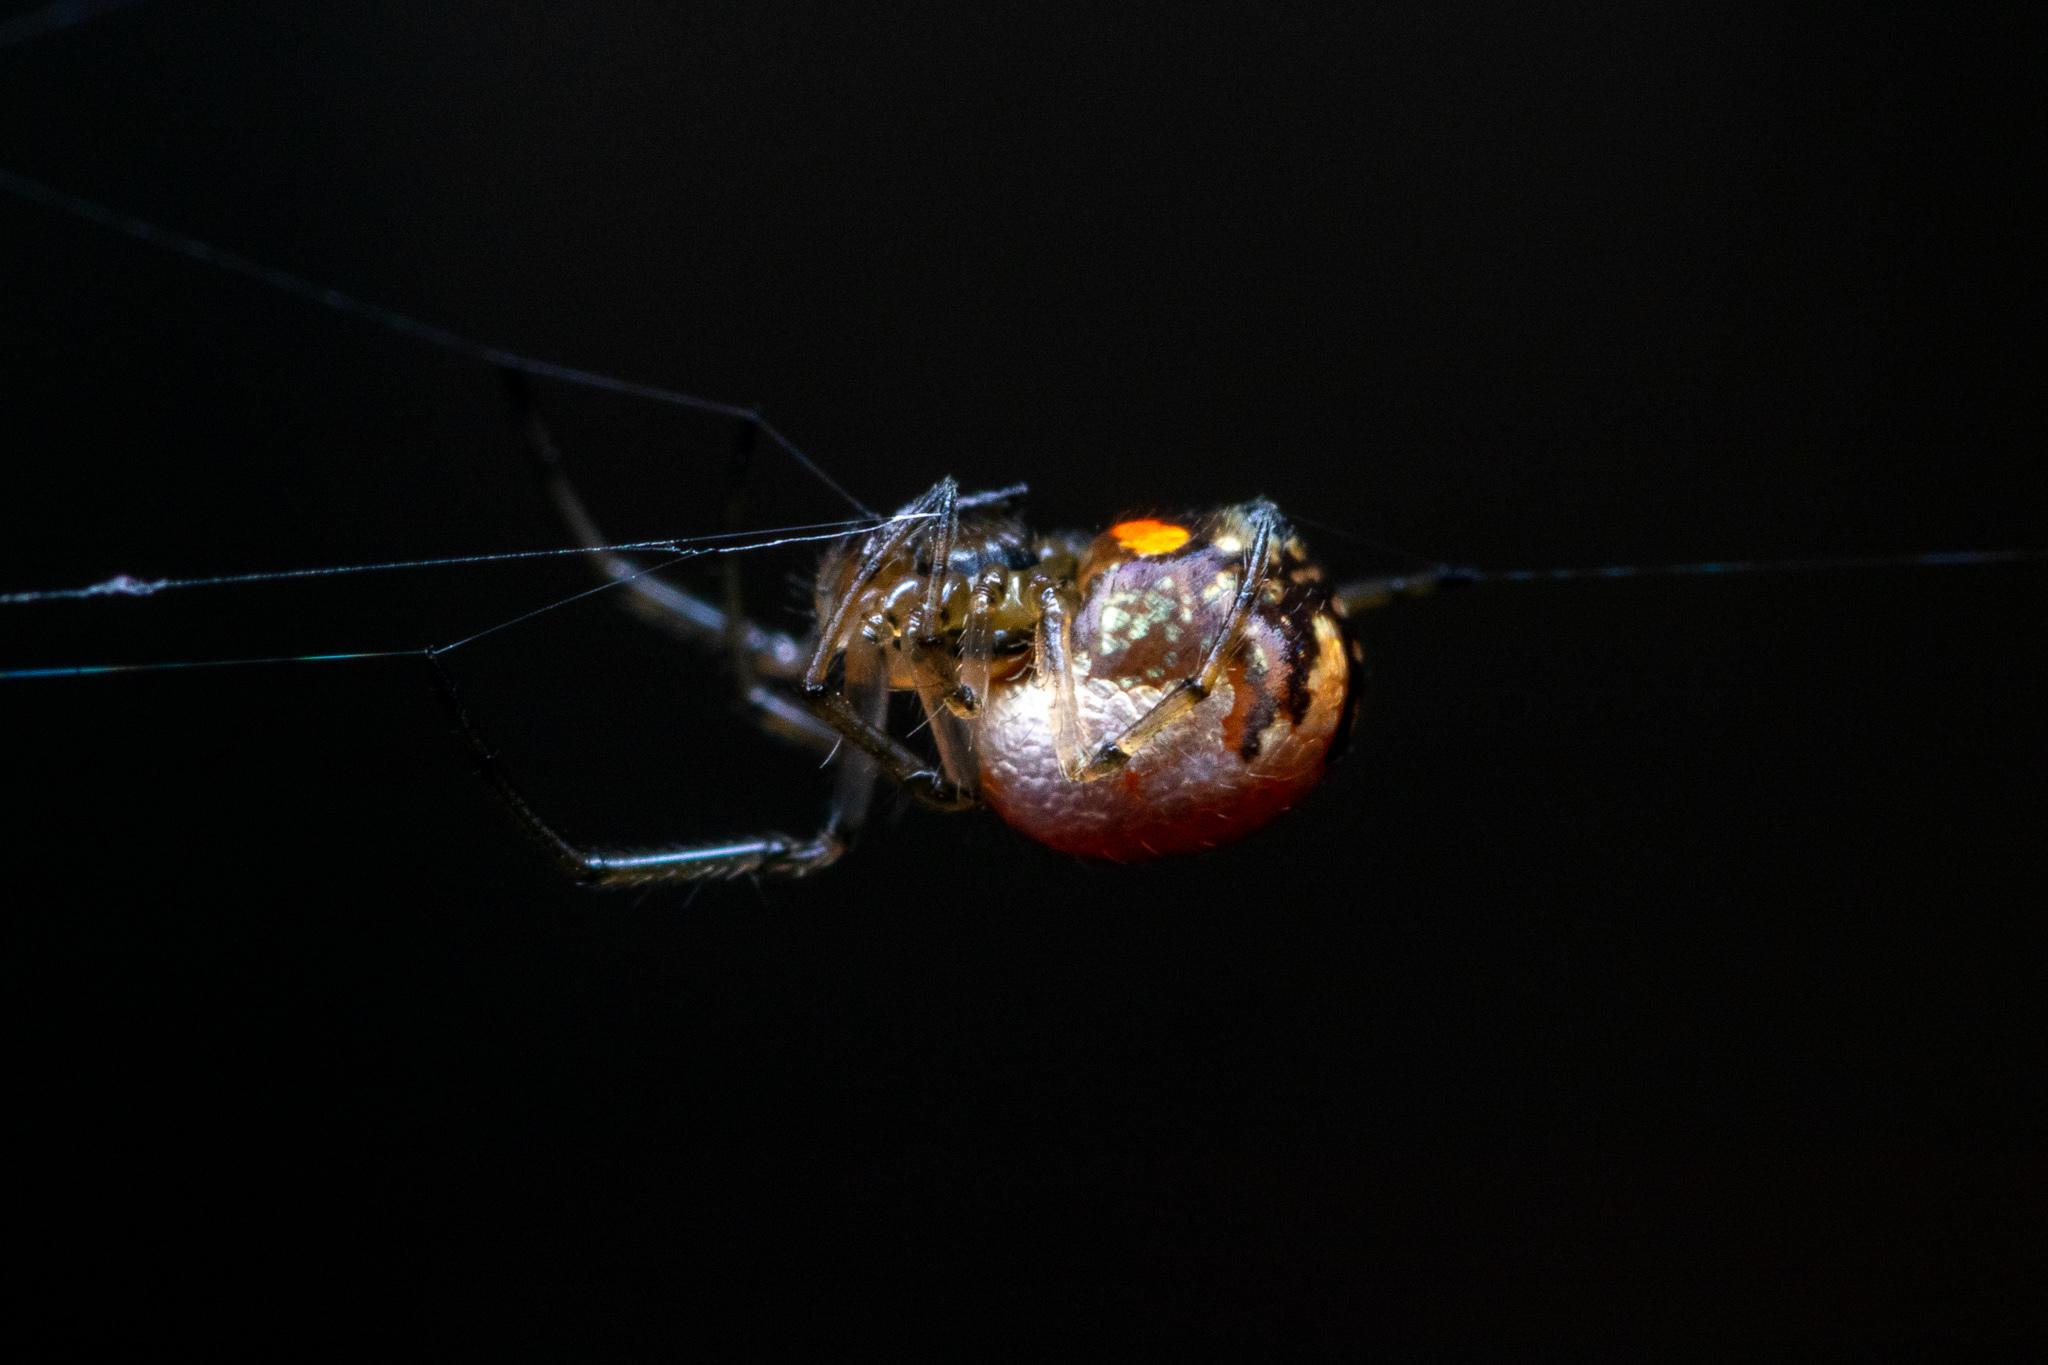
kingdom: Animalia
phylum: Arthropoda
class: Arachnida
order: Araneae
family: Tetragnathidae
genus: Leucauge
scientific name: Leucauge
